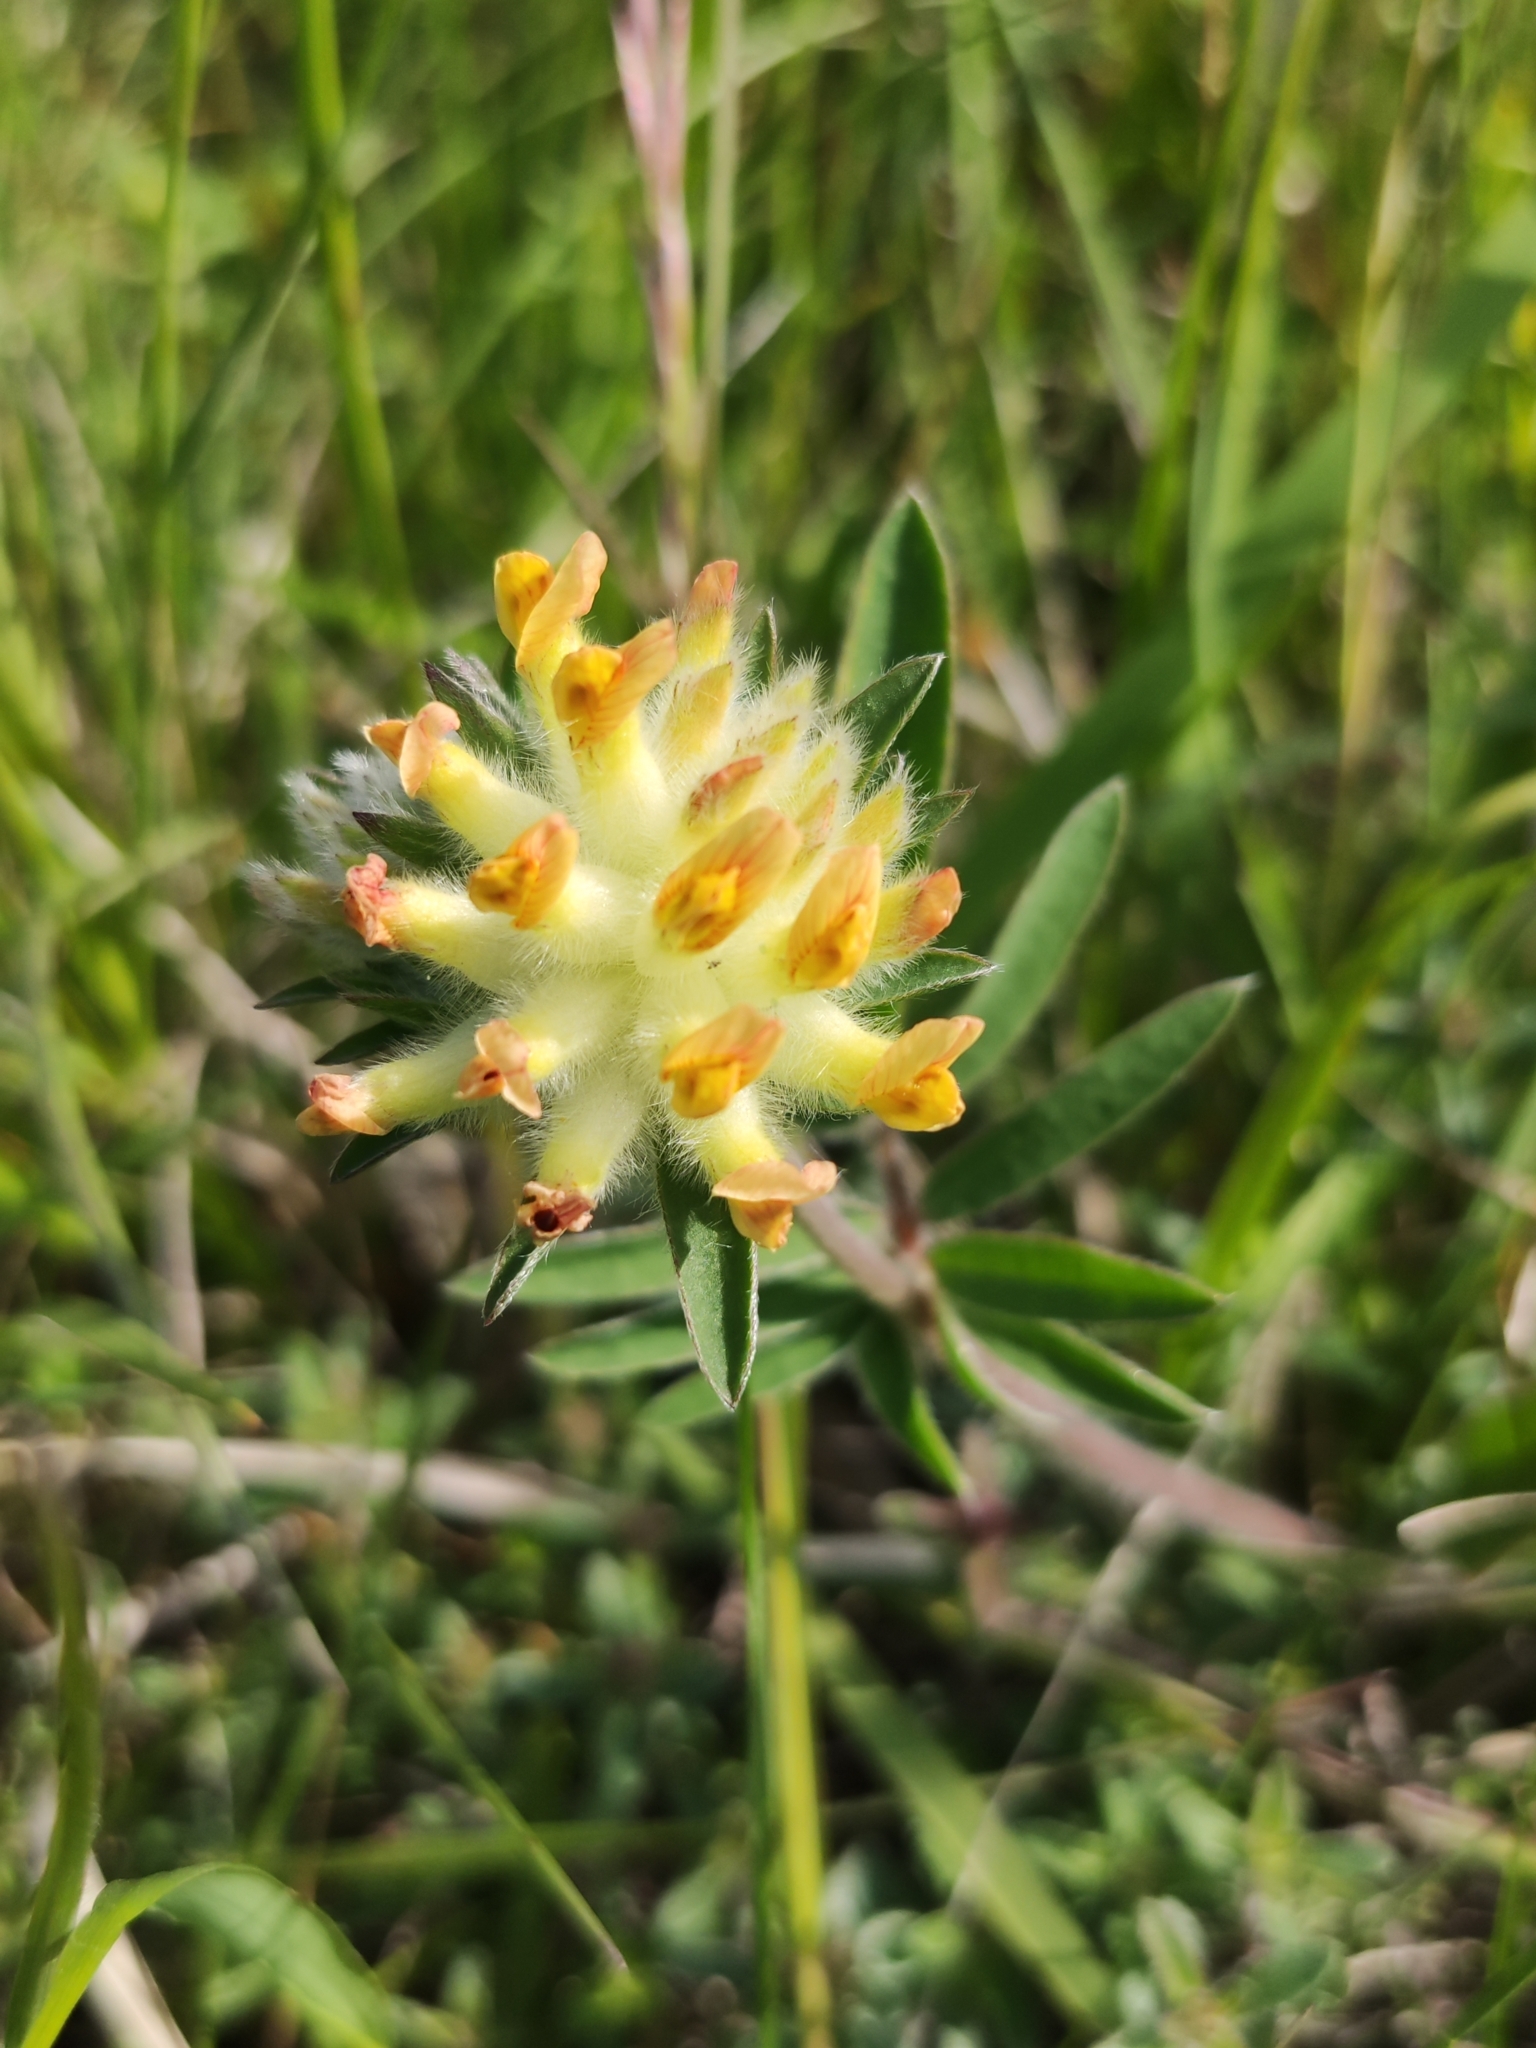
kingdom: Plantae
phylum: Tracheophyta
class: Magnoliopsida
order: Fabales
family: Fabaceae
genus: Anthyllis
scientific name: Anthyllis vulneraria
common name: Kidney vetch
